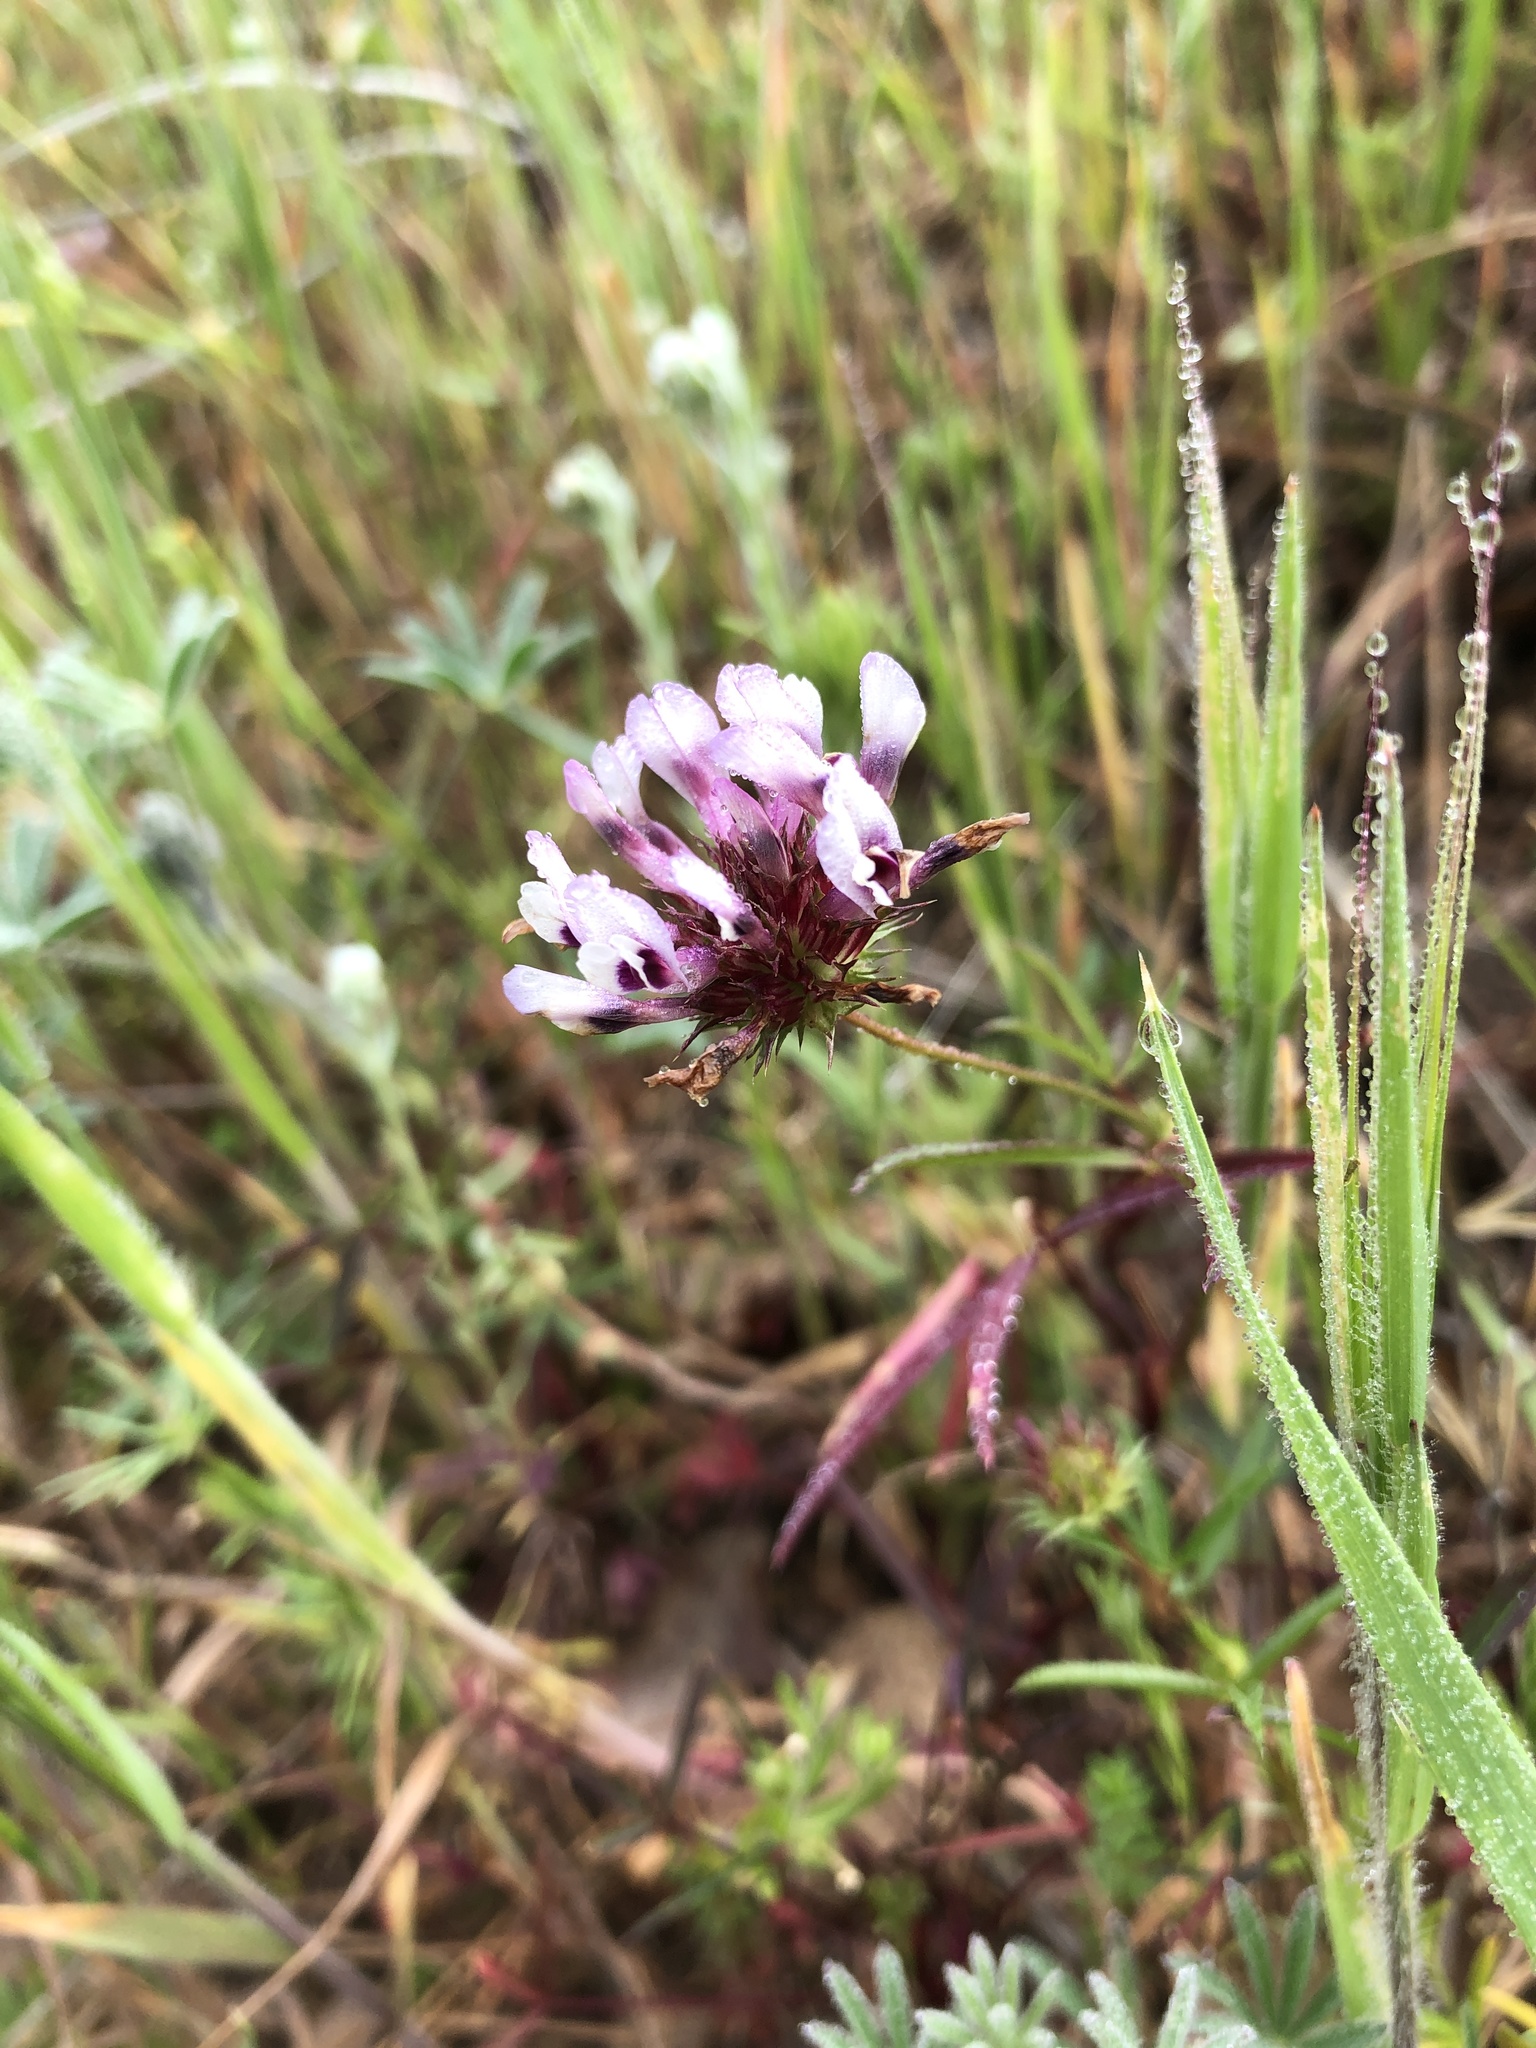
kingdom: Plantae
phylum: Tracheophyta
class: Magnoliopsida
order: Fabales
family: Fabaceae
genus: Trifolium
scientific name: Trifolium willdenovii
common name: Tomcat clover
